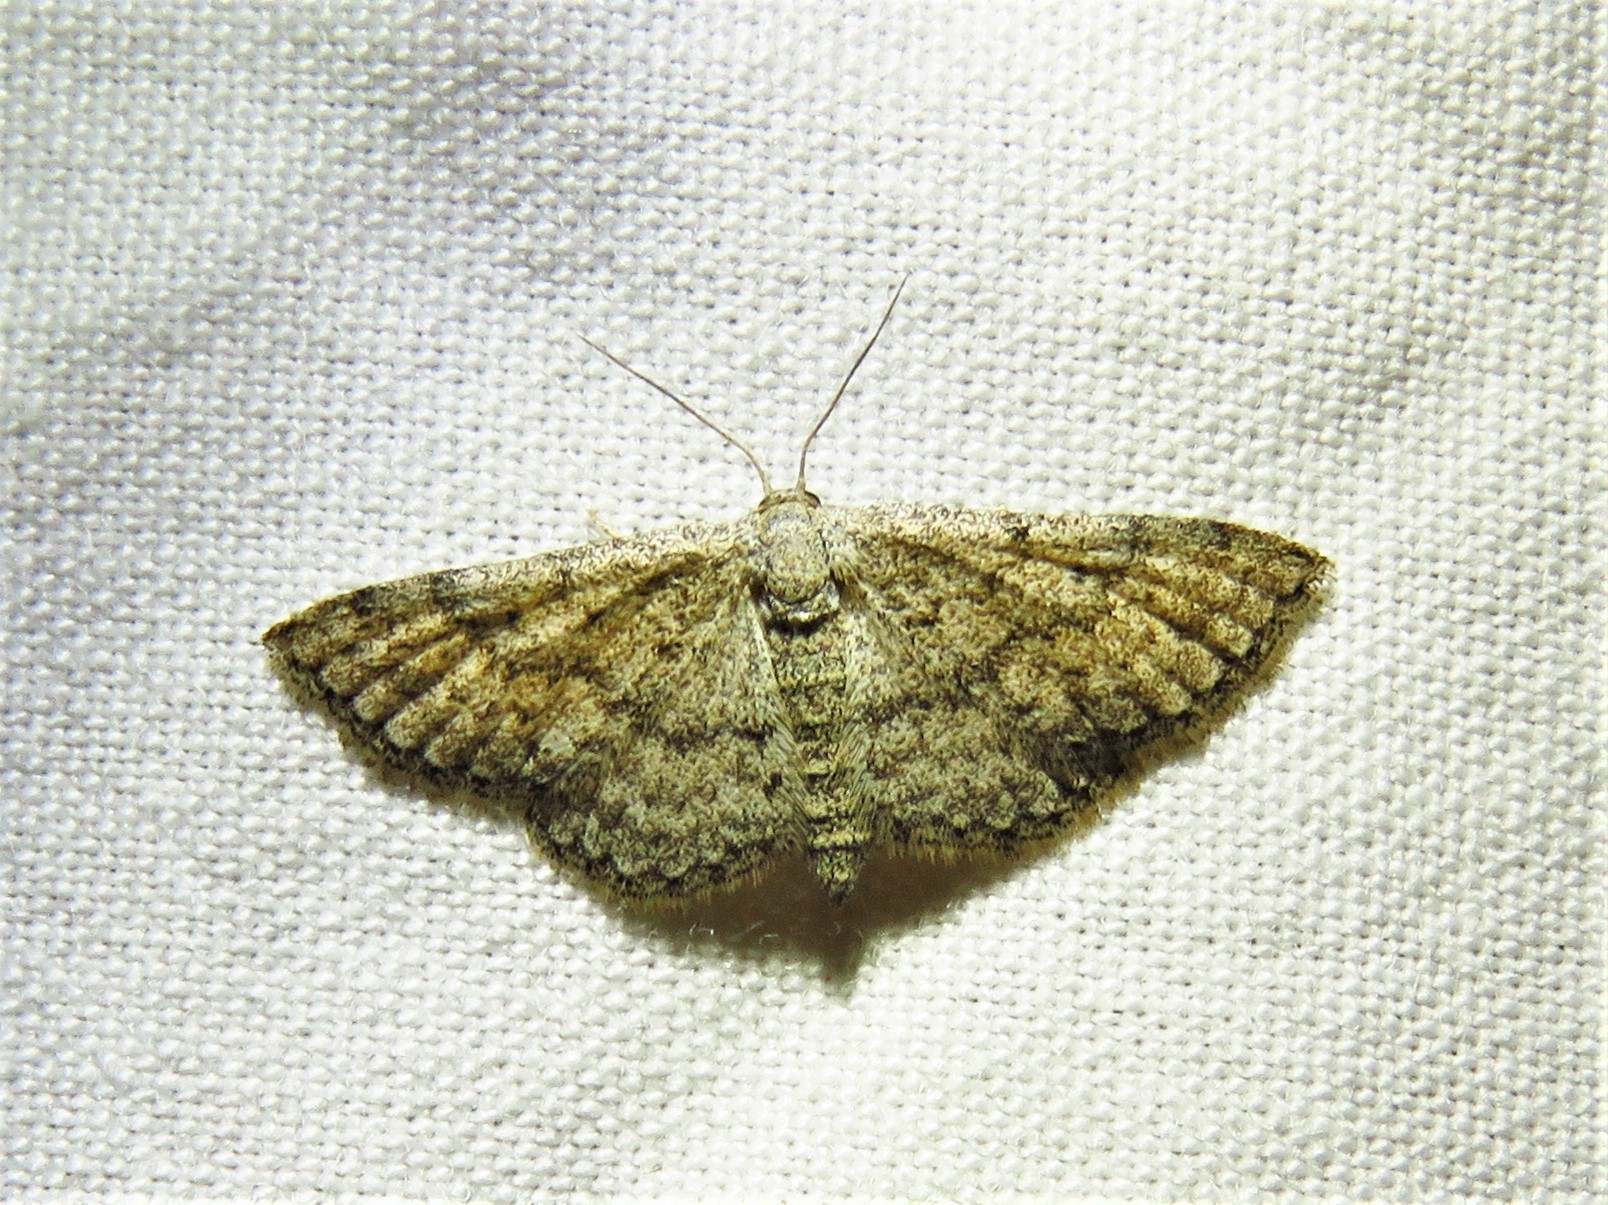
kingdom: Animalia
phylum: Arthropoda
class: Insecta
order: Lepidoptera
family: Geometridae
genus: Lobocleta
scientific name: Lobocleta ossularia
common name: Drab brown wave
